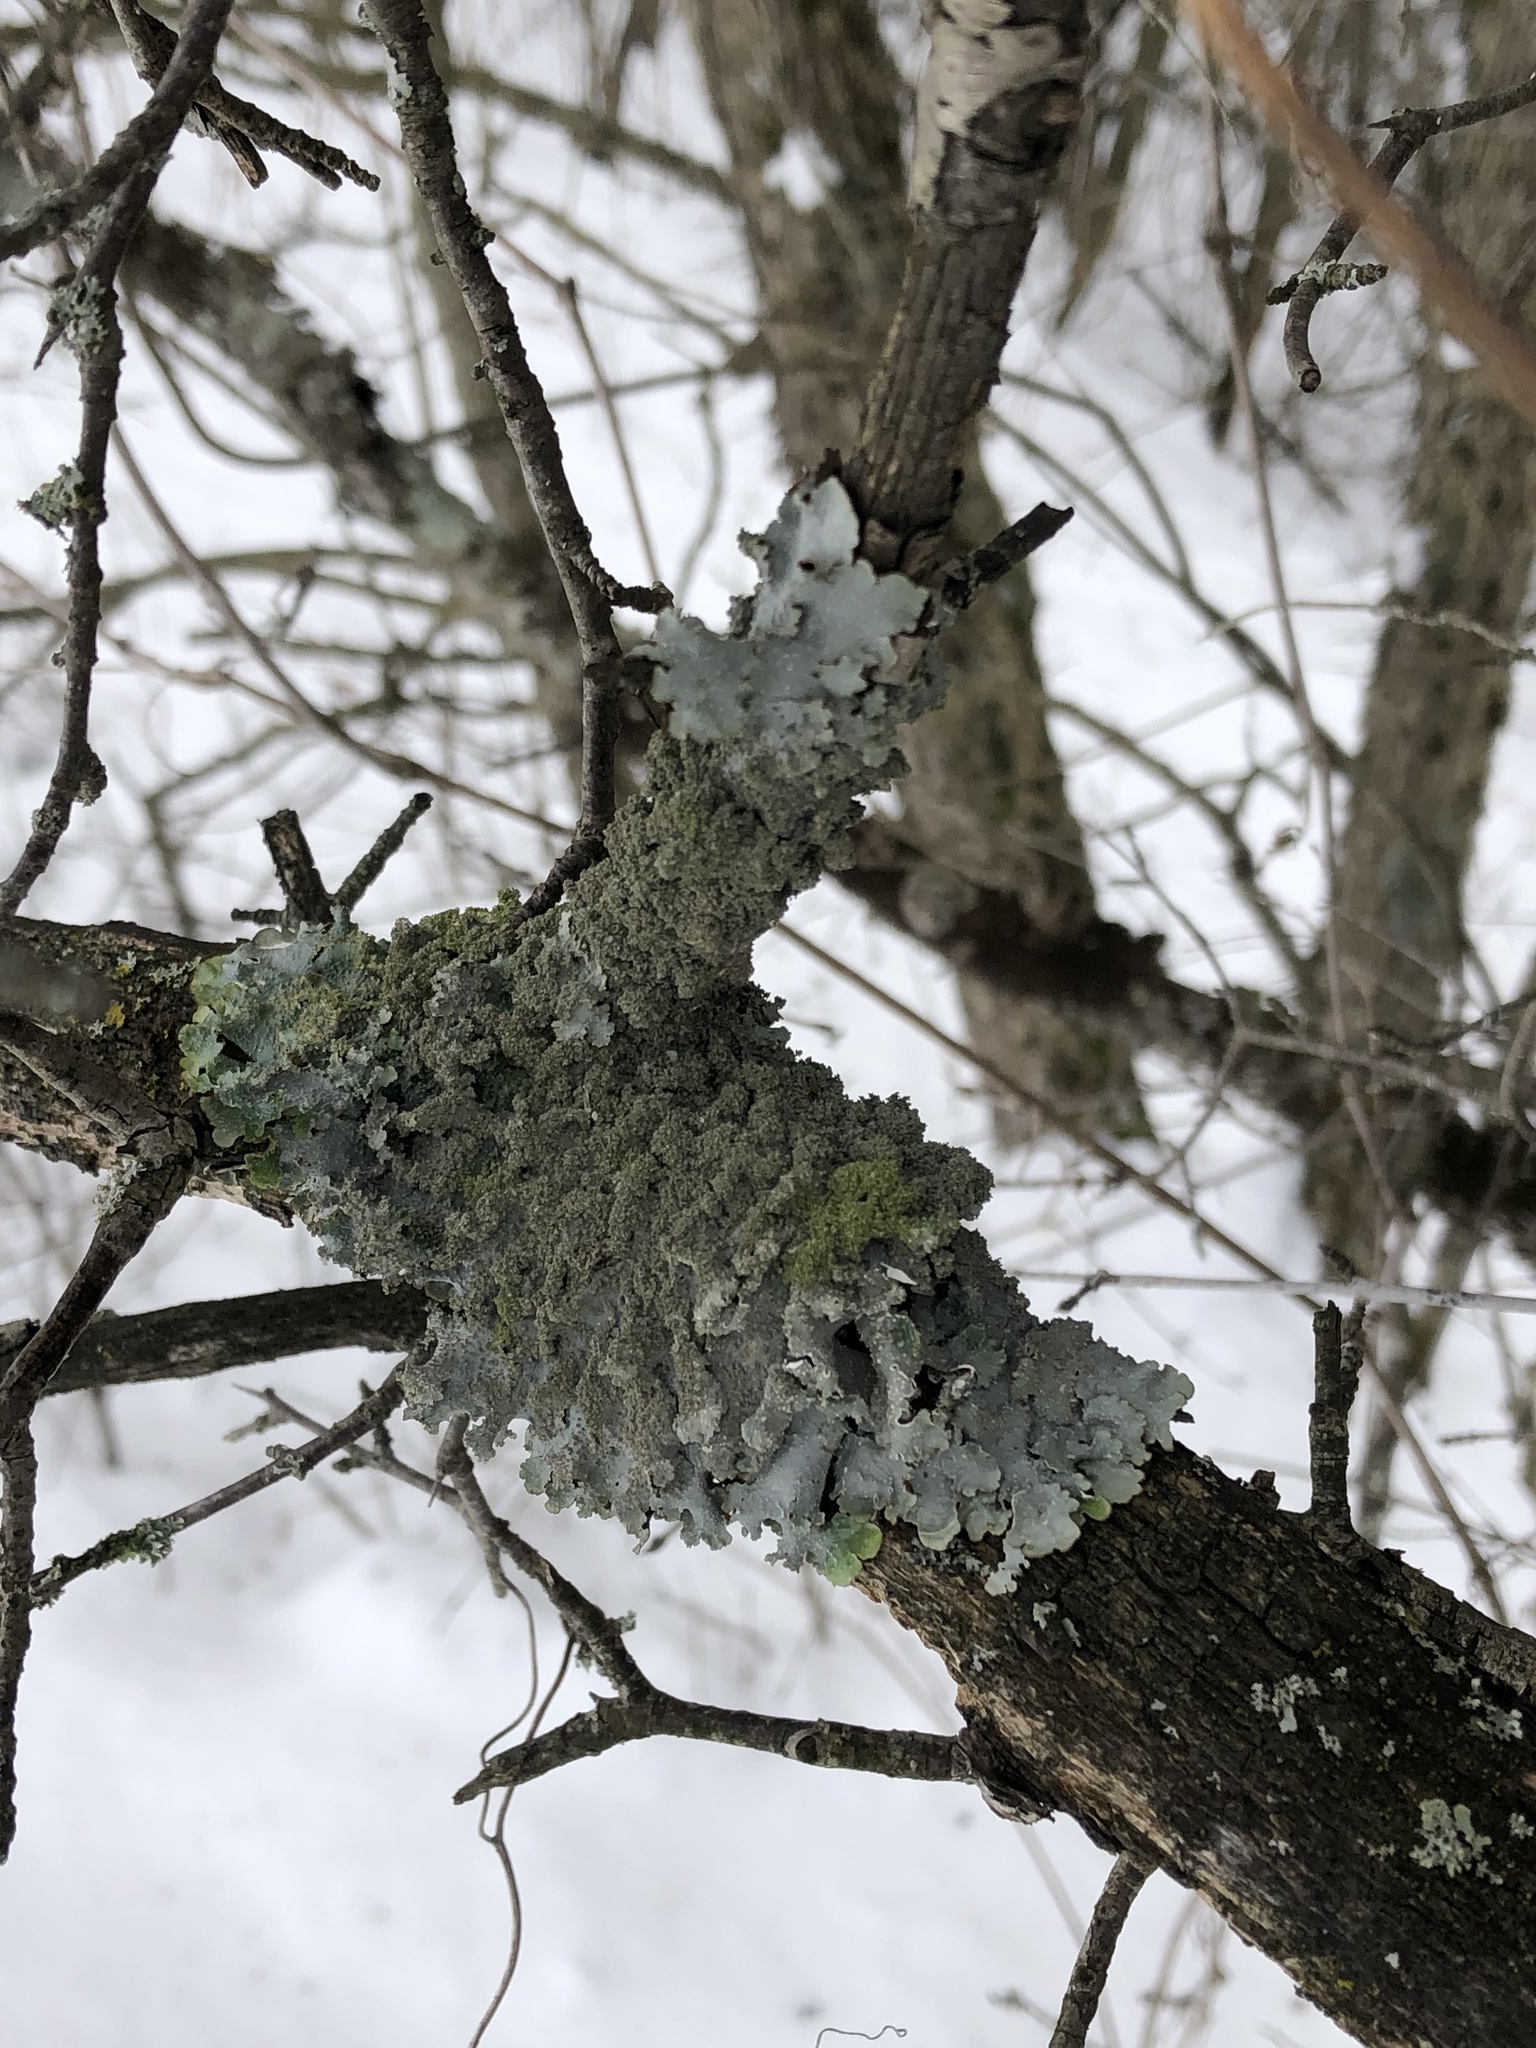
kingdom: Fungi
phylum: Ascomycota
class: Lecanoromycetes
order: Lecanorales
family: Parmeliaceae
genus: Punctelia
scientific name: Punctelia rudecta
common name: Rough speckled shield lichen
